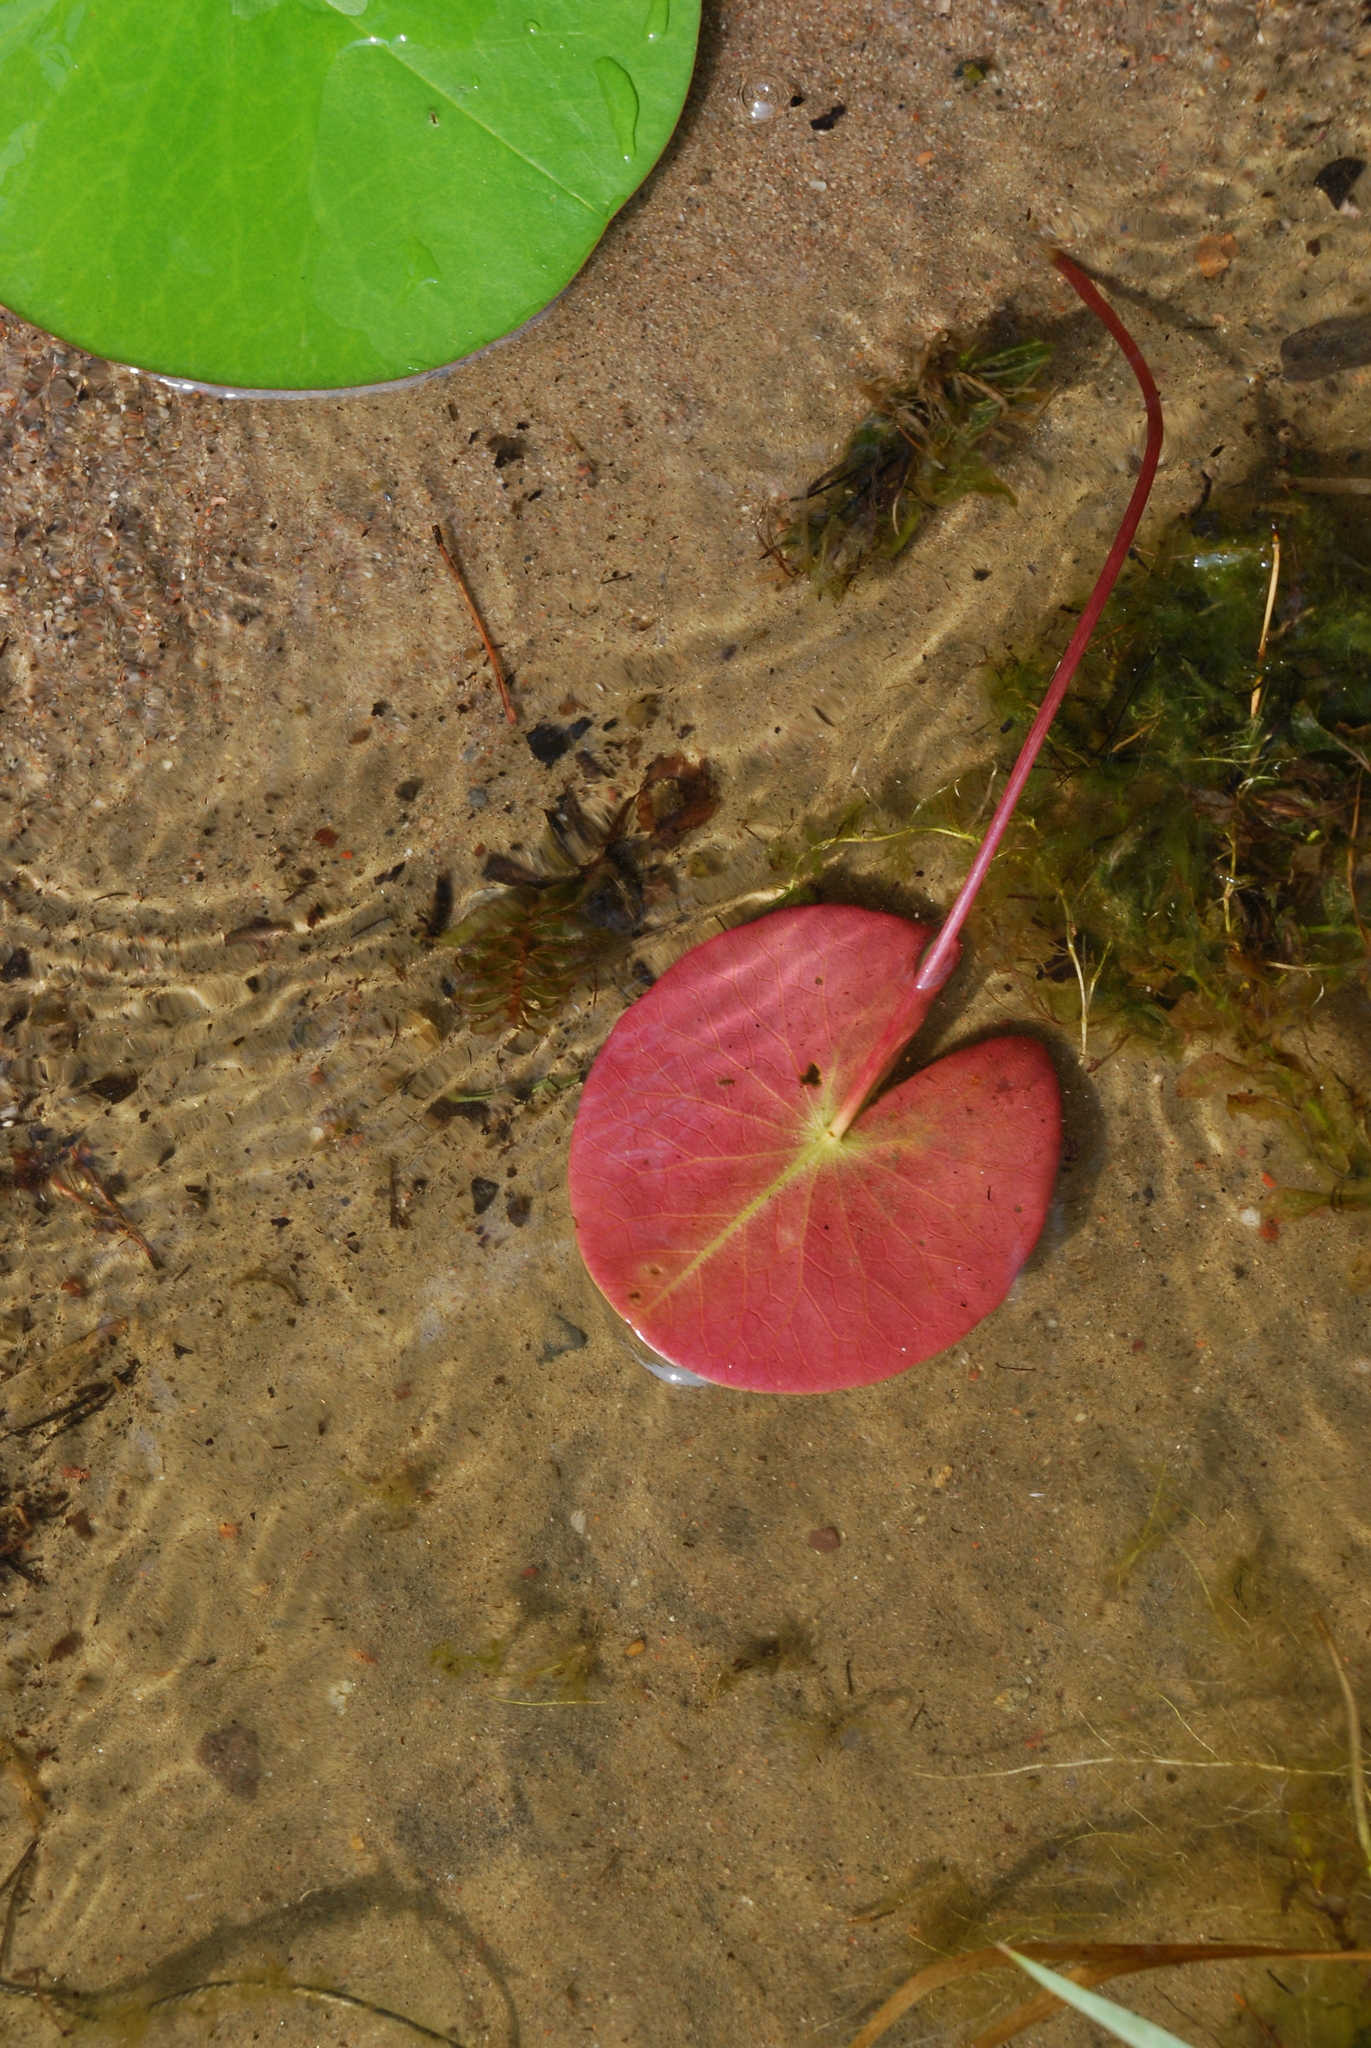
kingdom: Plantae
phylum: Tracheophyta
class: Magnoliopsida
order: Nymphaeales
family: Nymphaeaceae
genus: Nymphaea
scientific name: Nymphaea candida
